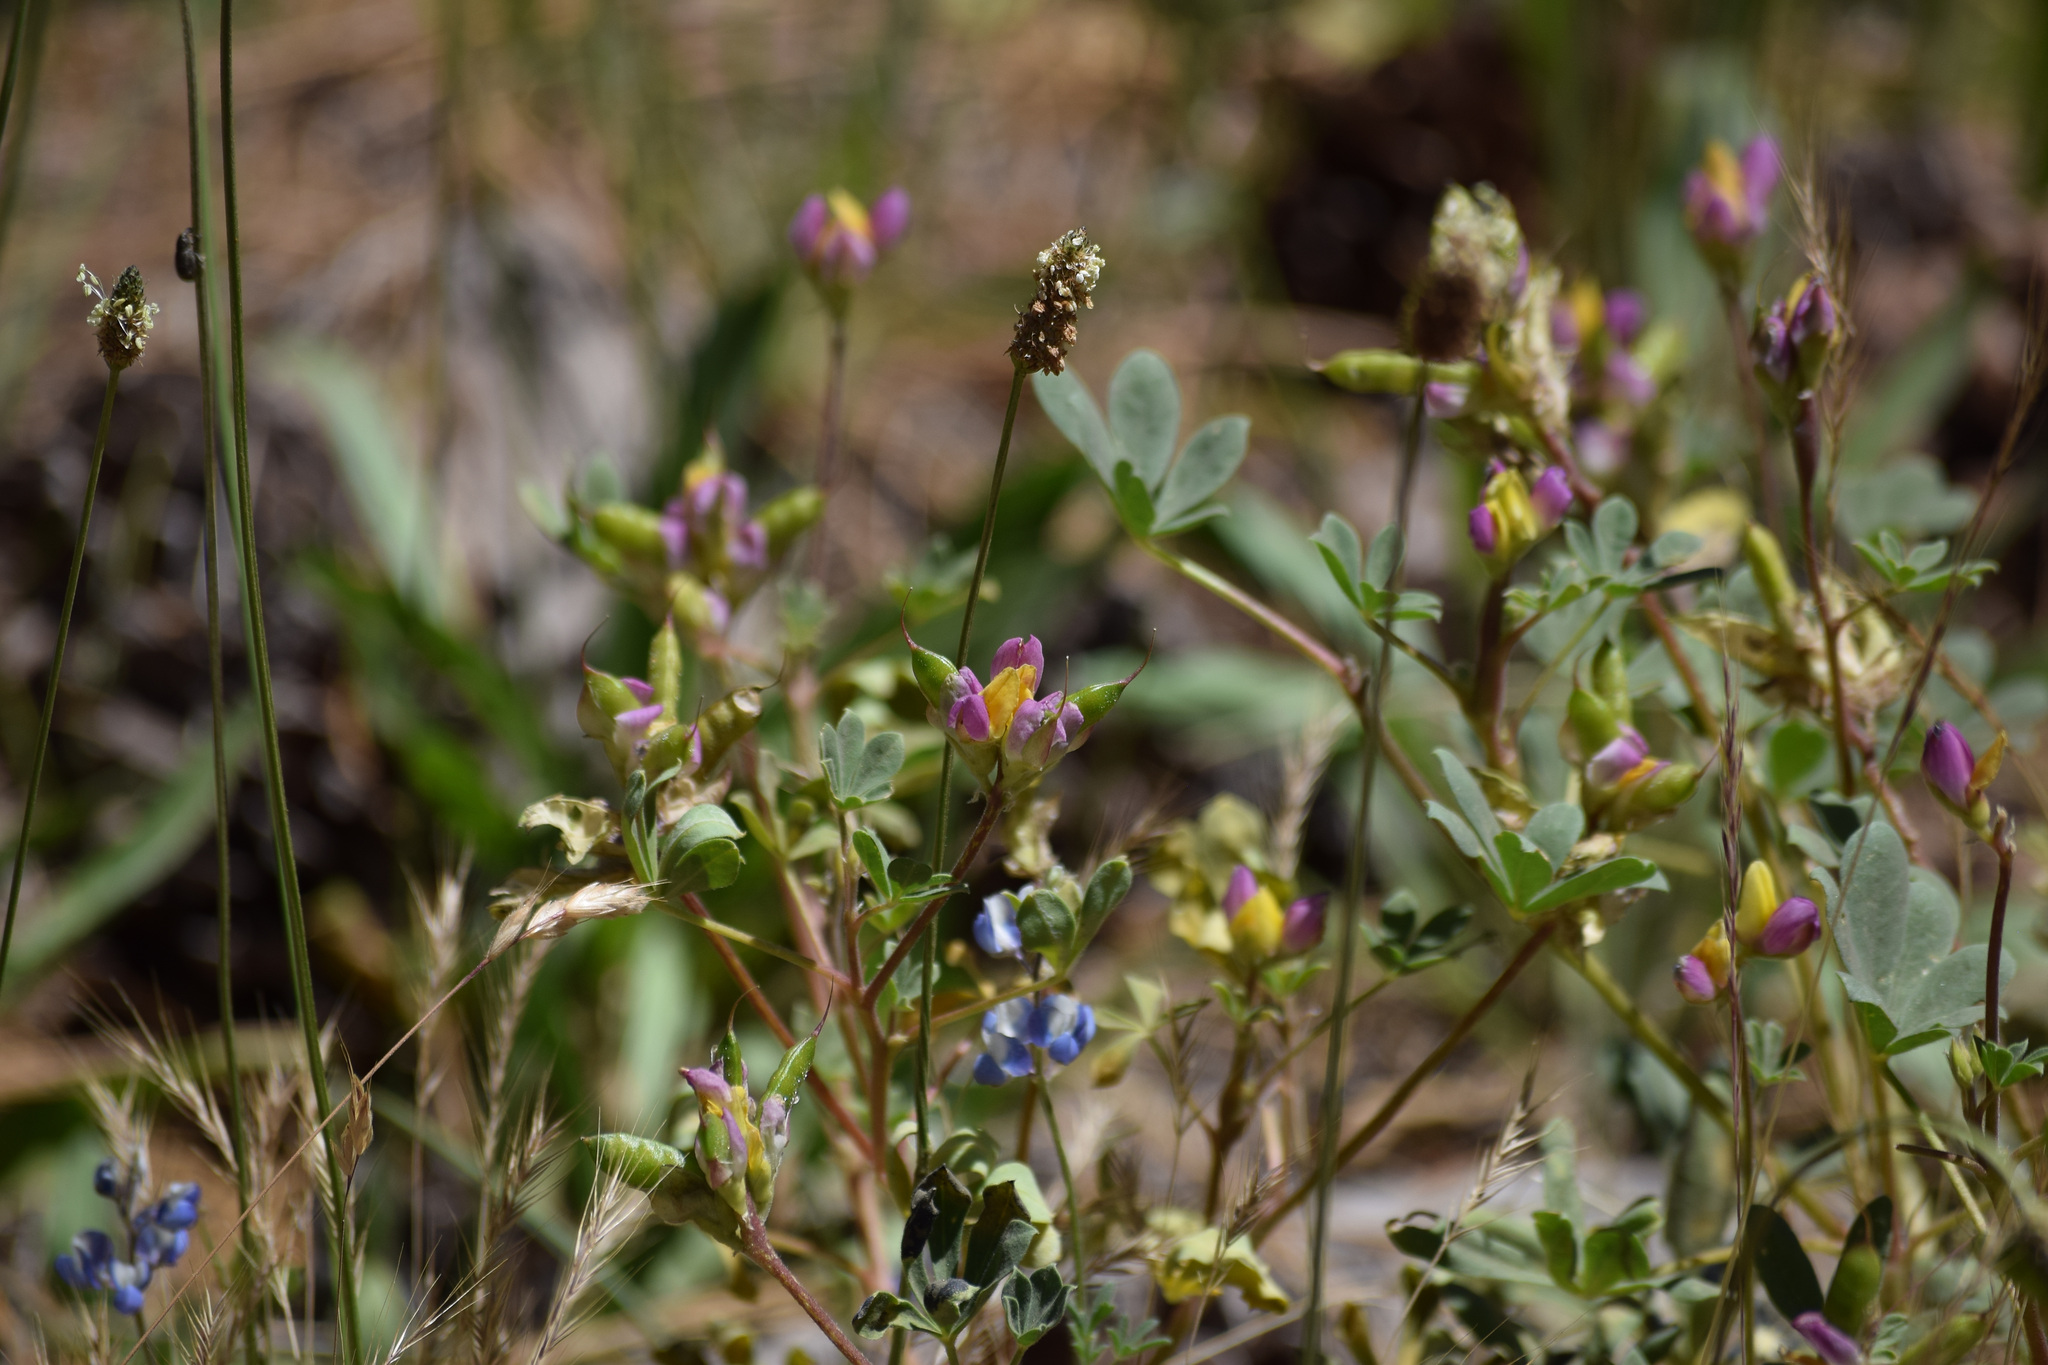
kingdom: Plantae
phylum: Tracheophyta
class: Magnoliopsida
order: Fabales
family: Fabaceae
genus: Lupinus
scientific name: Lupinus stiversii
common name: Harlequin lupine
